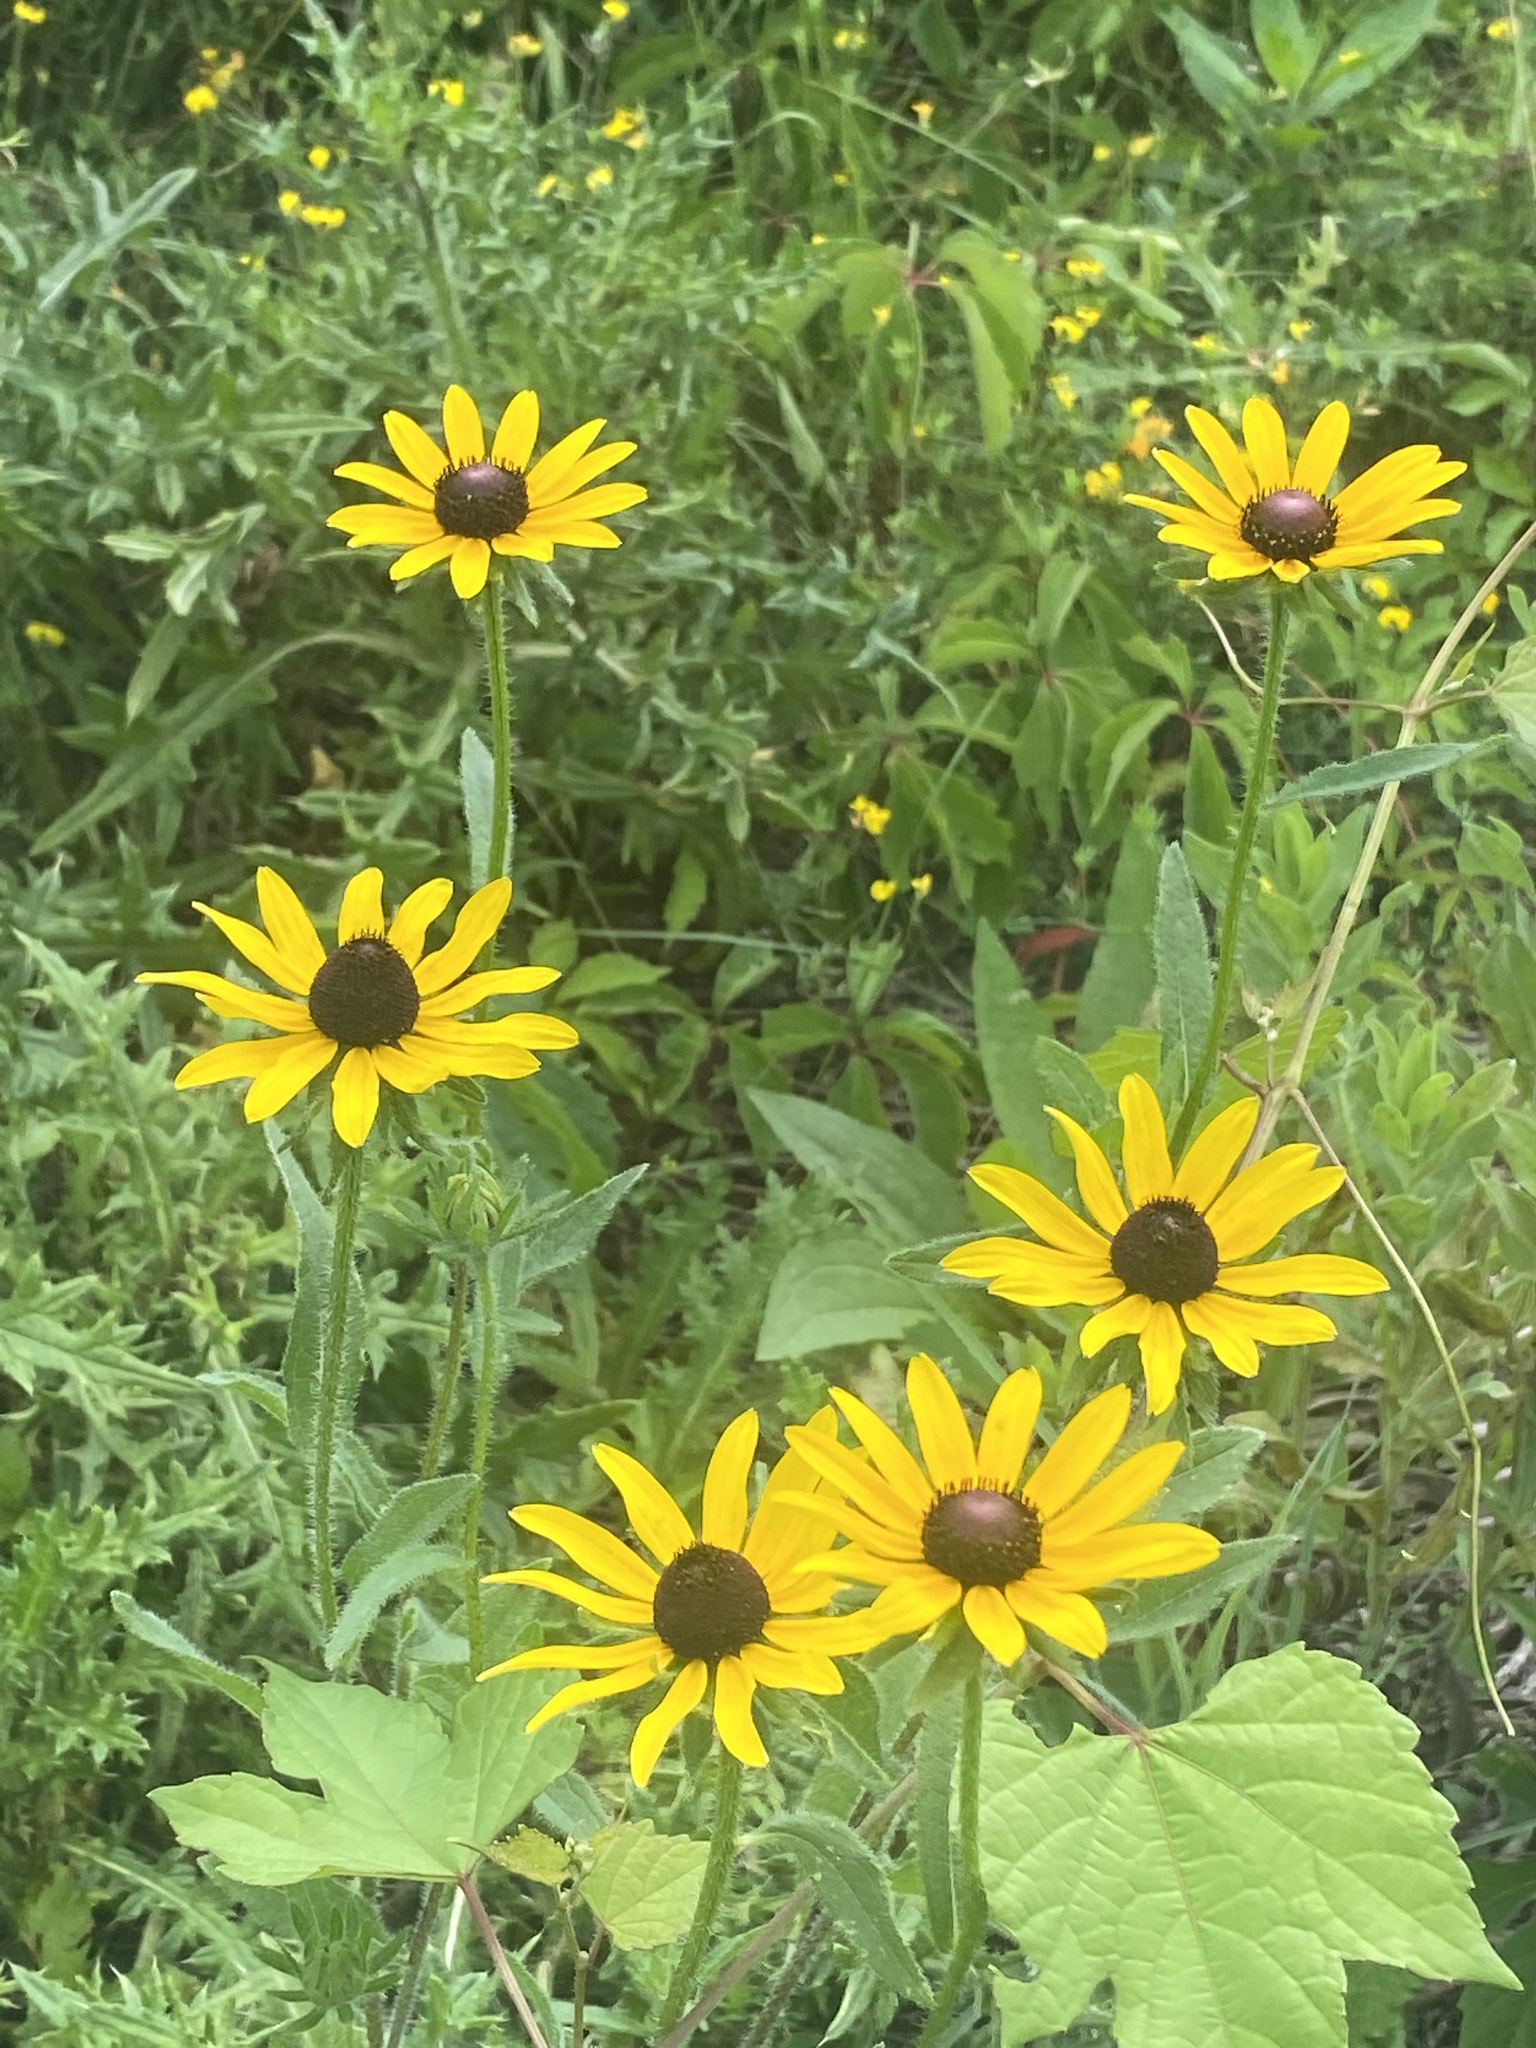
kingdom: Plantae
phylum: Tracheophyta
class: Magnoliopsida
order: Asterales
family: Asteraceae
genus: Rudbeckia
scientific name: Rudbeckia hirta
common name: Black-eyed-susan
